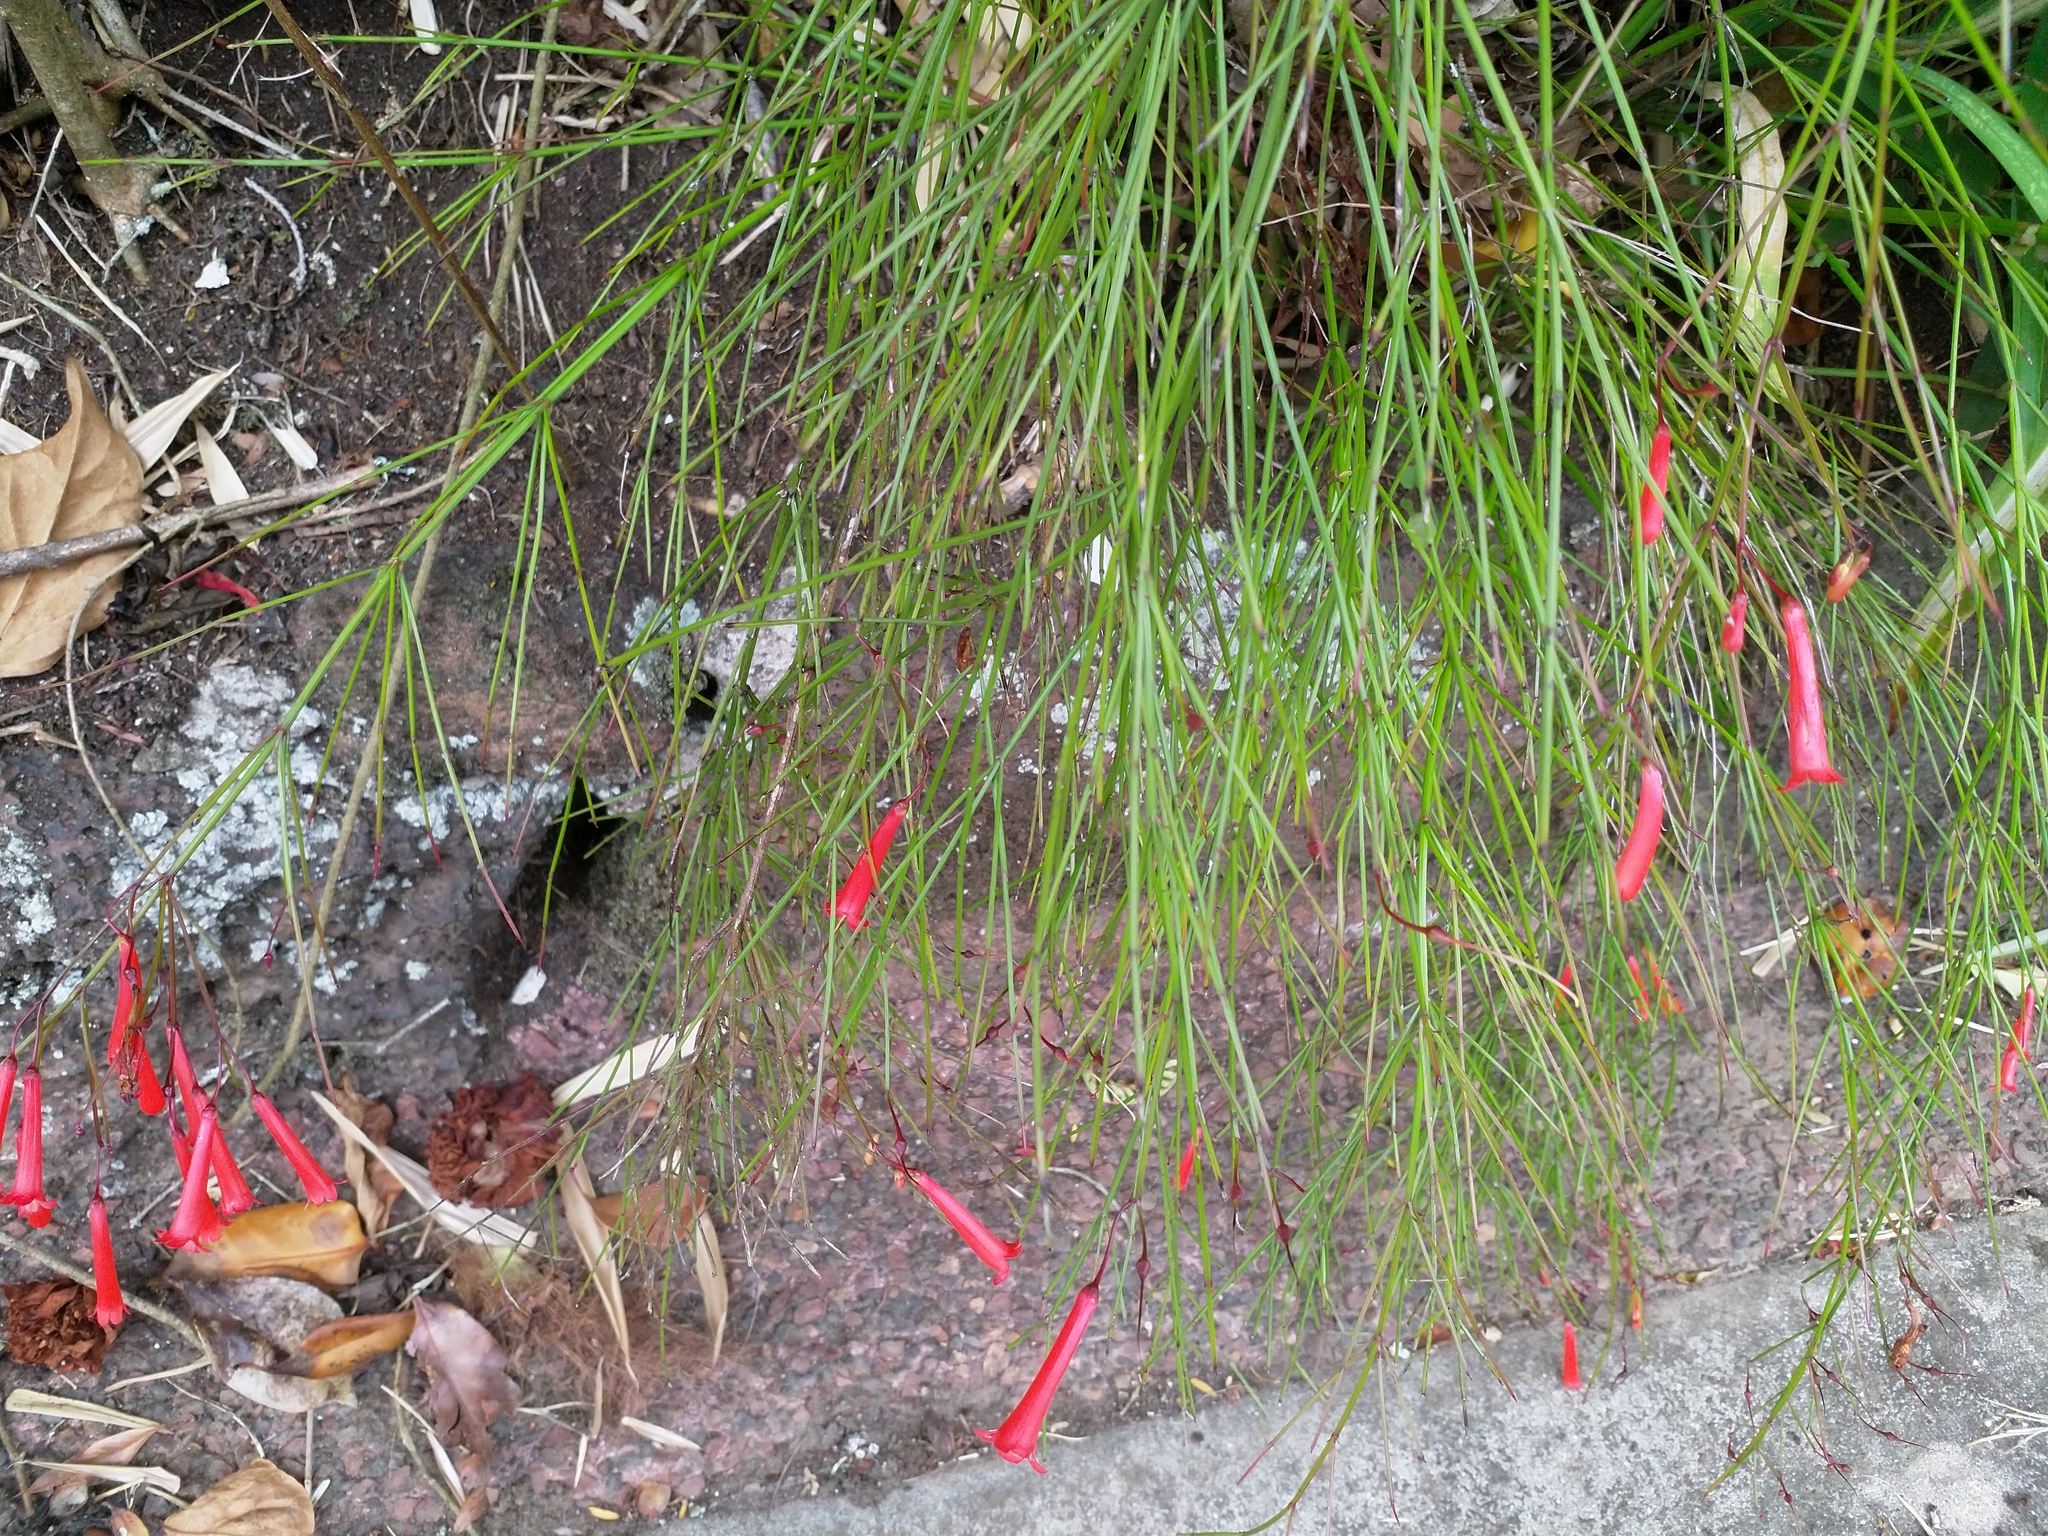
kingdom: Plantae
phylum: Tracheophyta
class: Magnoliopsida
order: Lamiales
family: Plantaginaceae
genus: Russelia
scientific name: Russelia equisetiformis
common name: Fountainbush
